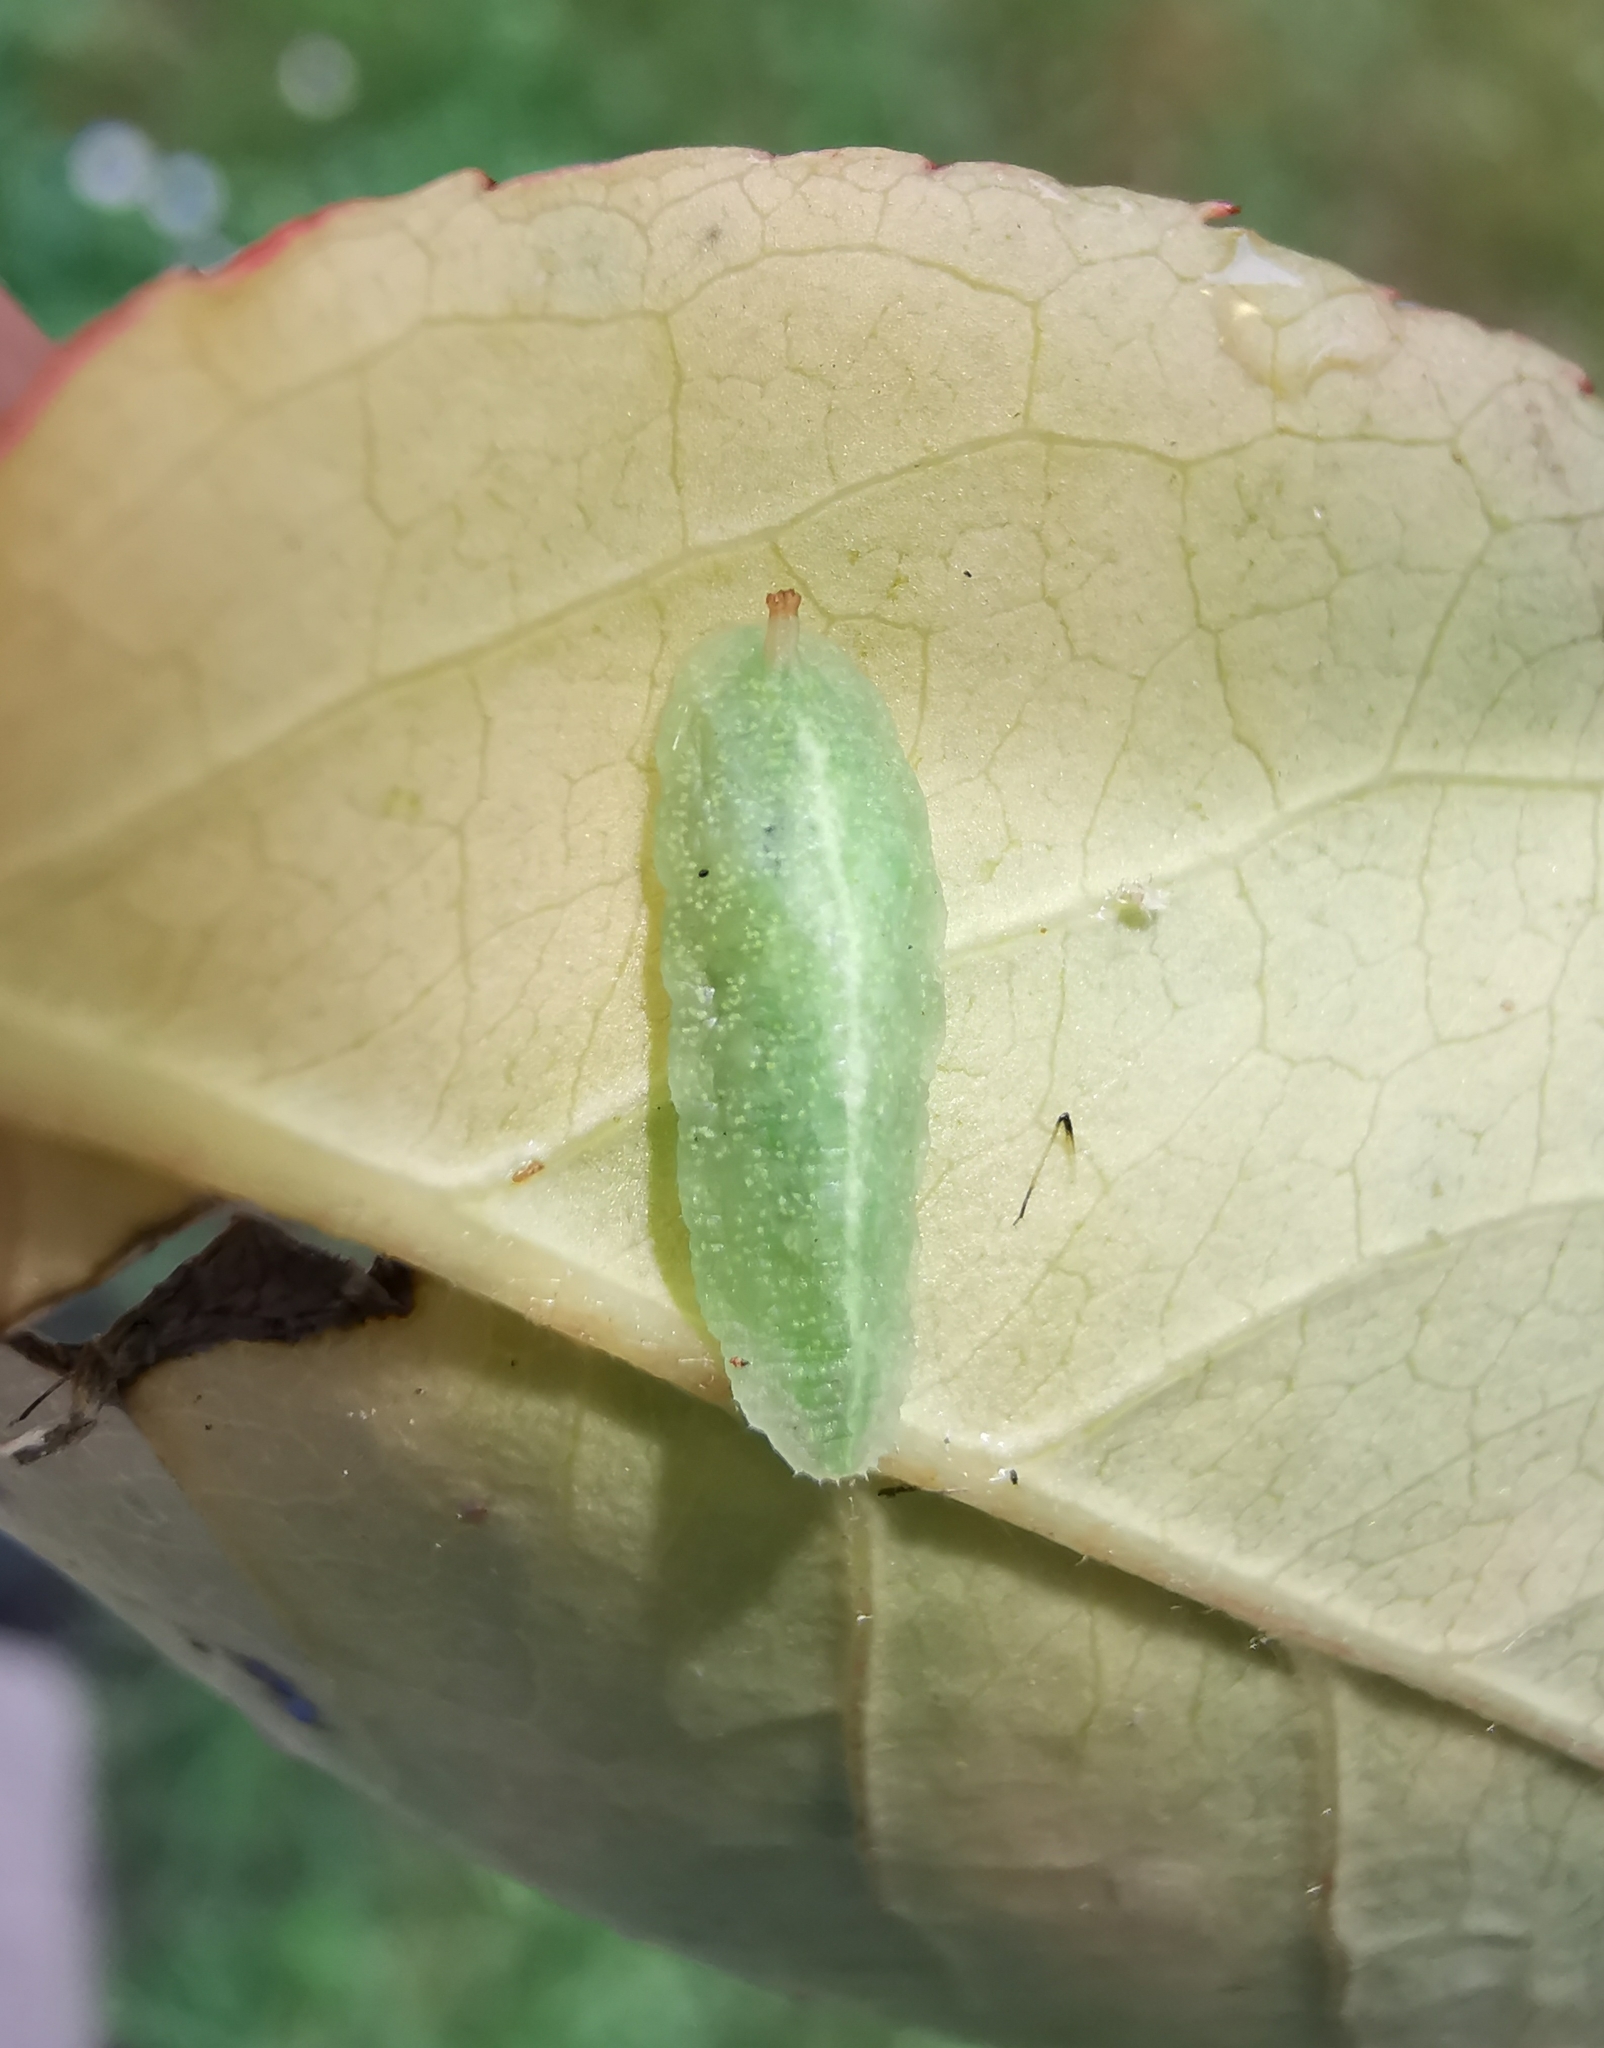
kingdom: Animalia
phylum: Arthropoda
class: Insecta
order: Diptera
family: Syrphidae
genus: Epistrophe
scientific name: Epistrophe eligans
